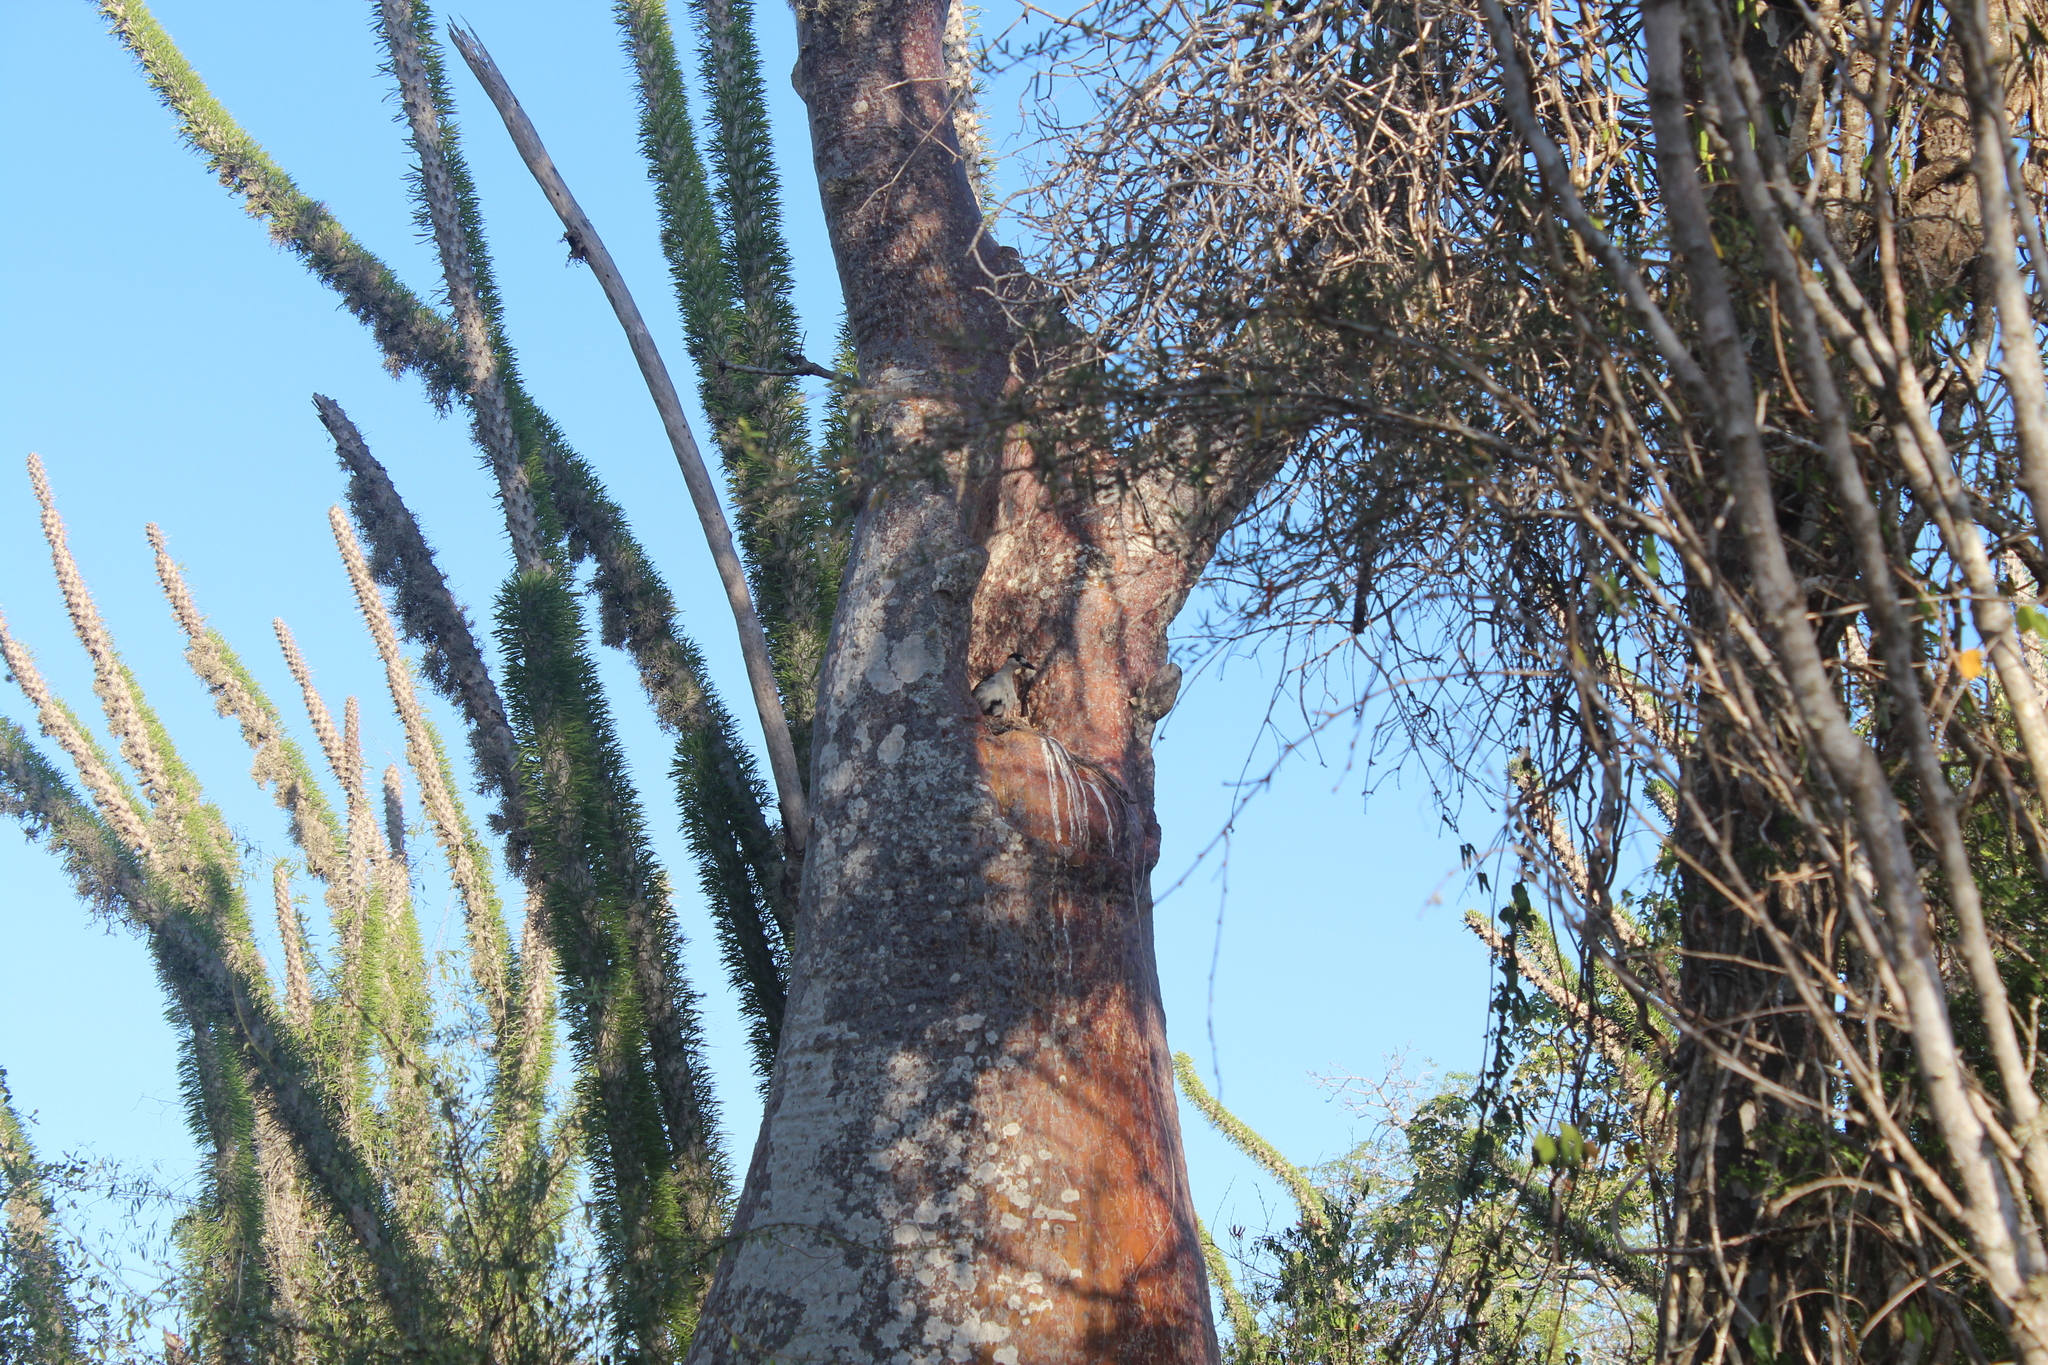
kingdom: Animalia
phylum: Chordata
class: Aves
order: Passeriformes
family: Vangidae
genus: Vanga
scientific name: Vanga curvirostris
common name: Hook-billed vanga
